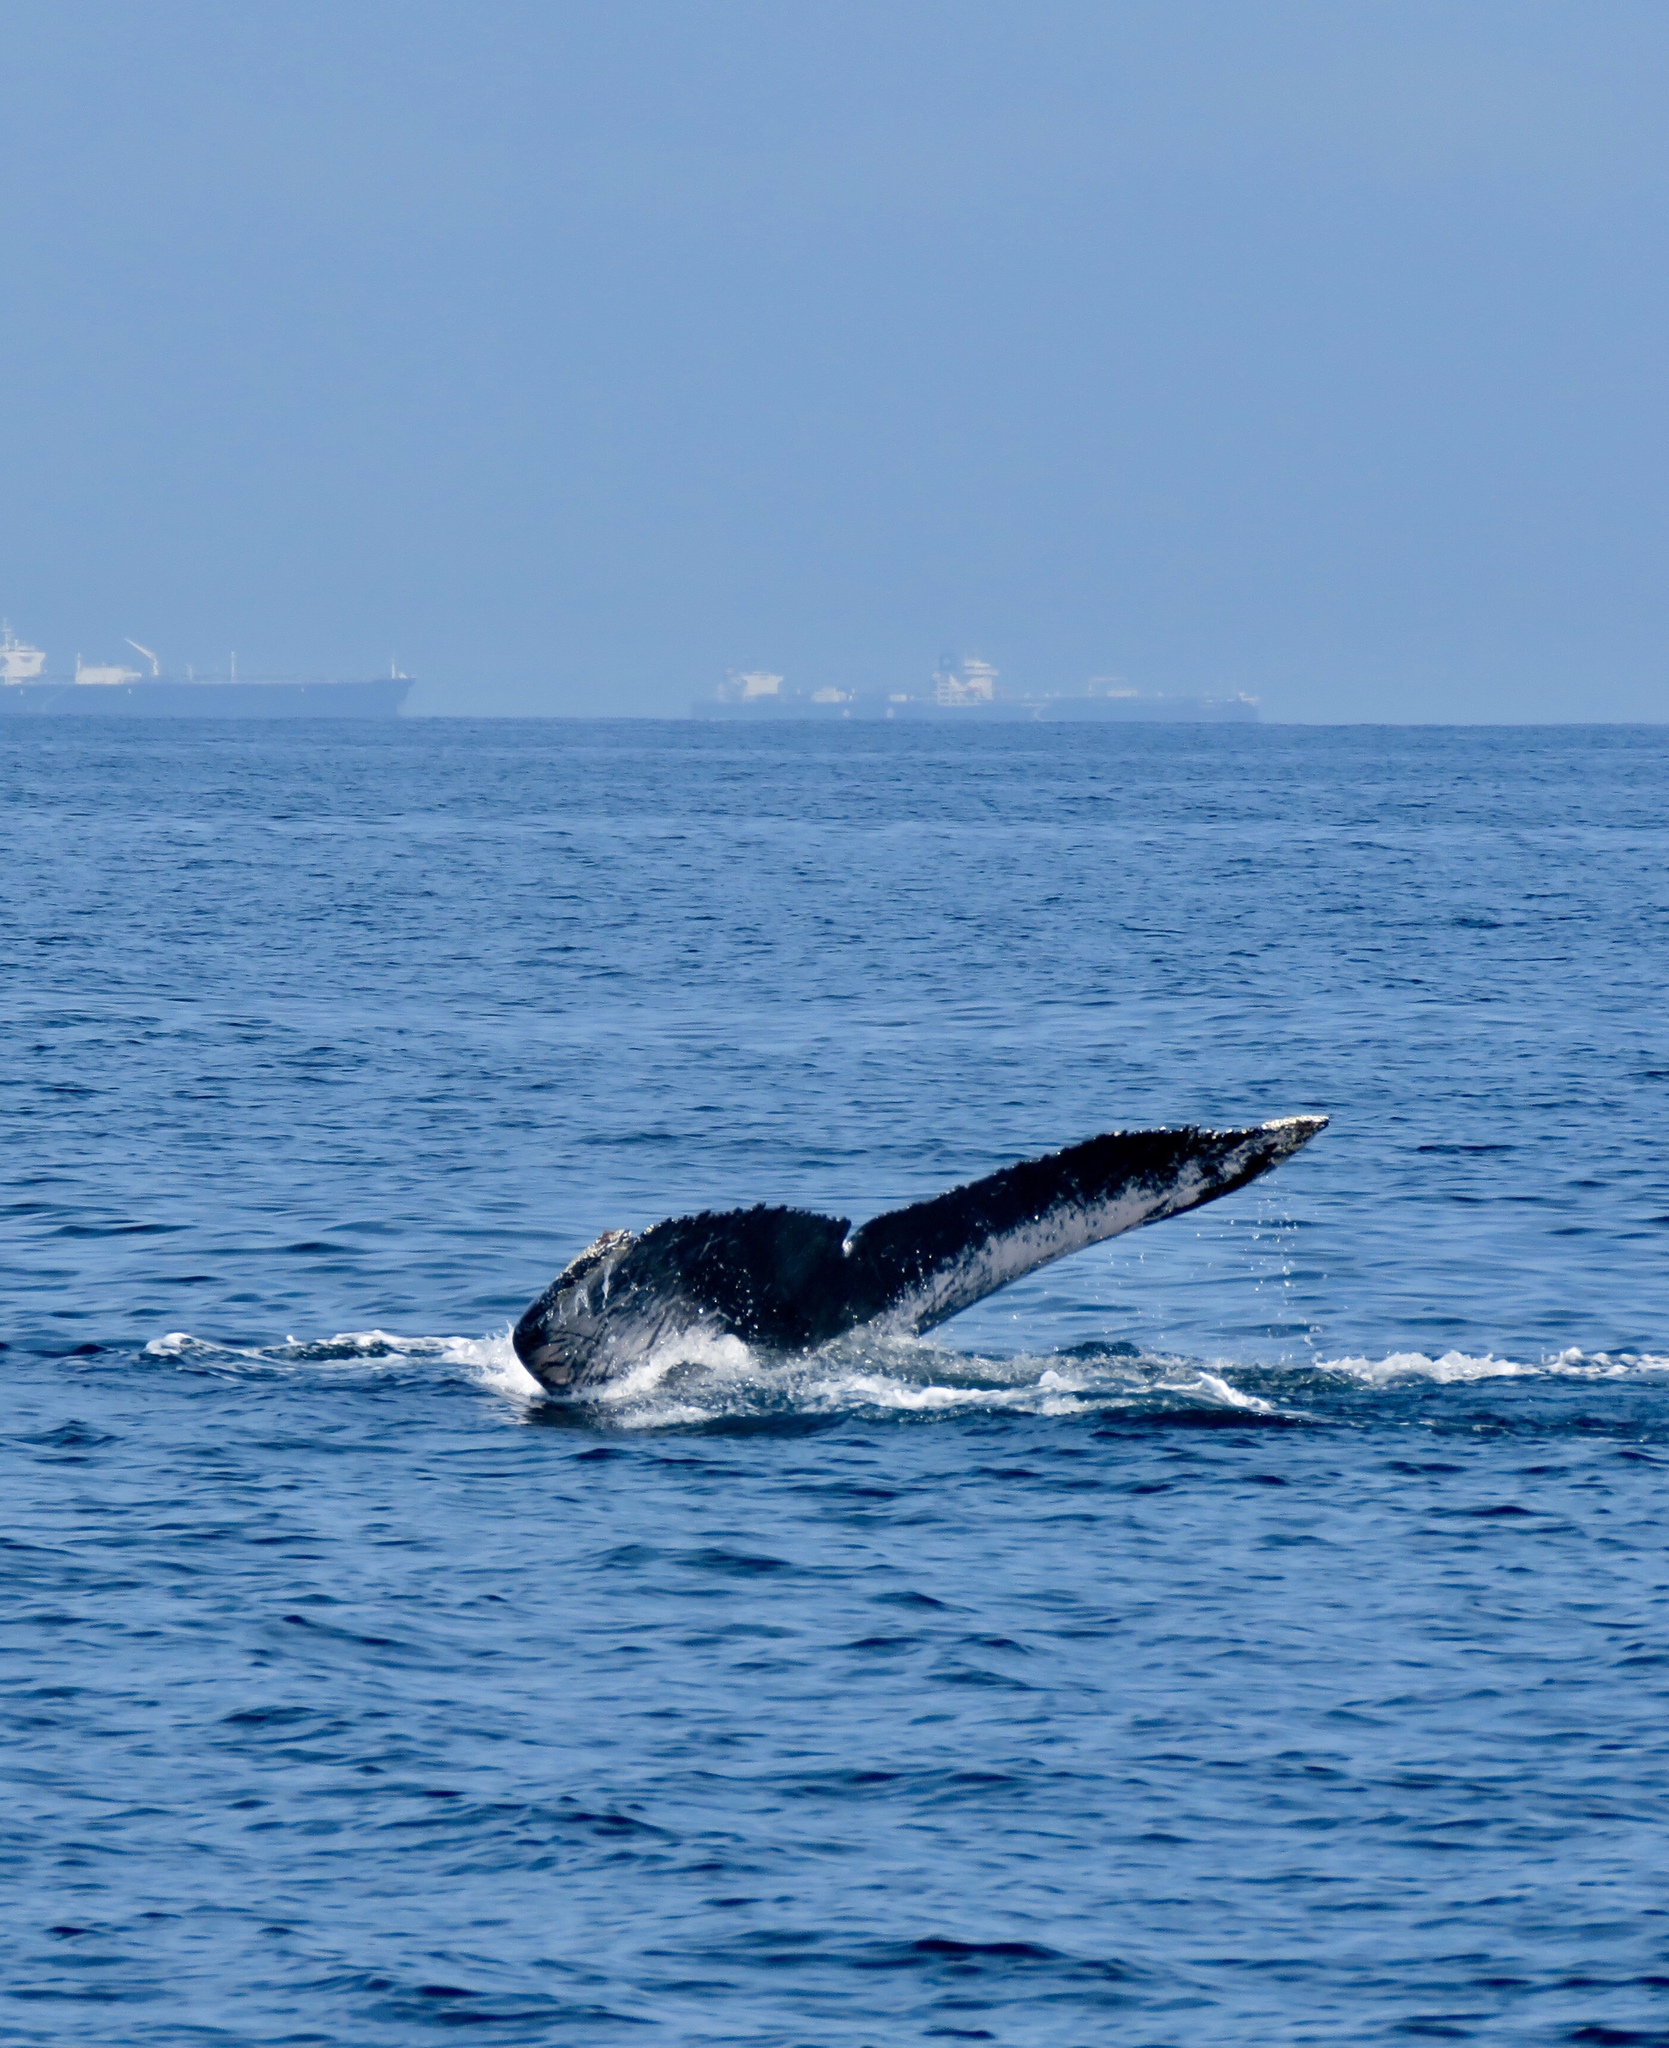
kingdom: Animalia
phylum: Chordata
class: Mammalia
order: Cetacea
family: Balaenopteridae
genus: Megaptera
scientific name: Megaptera novaeangliae
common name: Humpback whale
